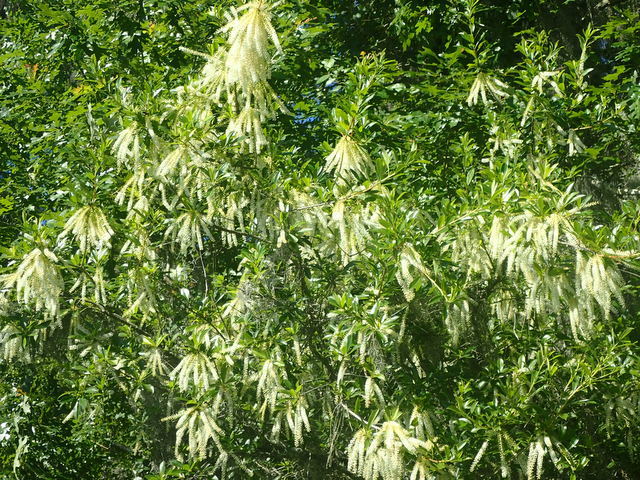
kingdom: Plantae
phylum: Tracheophyta
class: Magnoliopsida
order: Ericales
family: Cyrillaceae
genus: Cyrilla
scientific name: Cyrilla racemiflora
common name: Black titi
